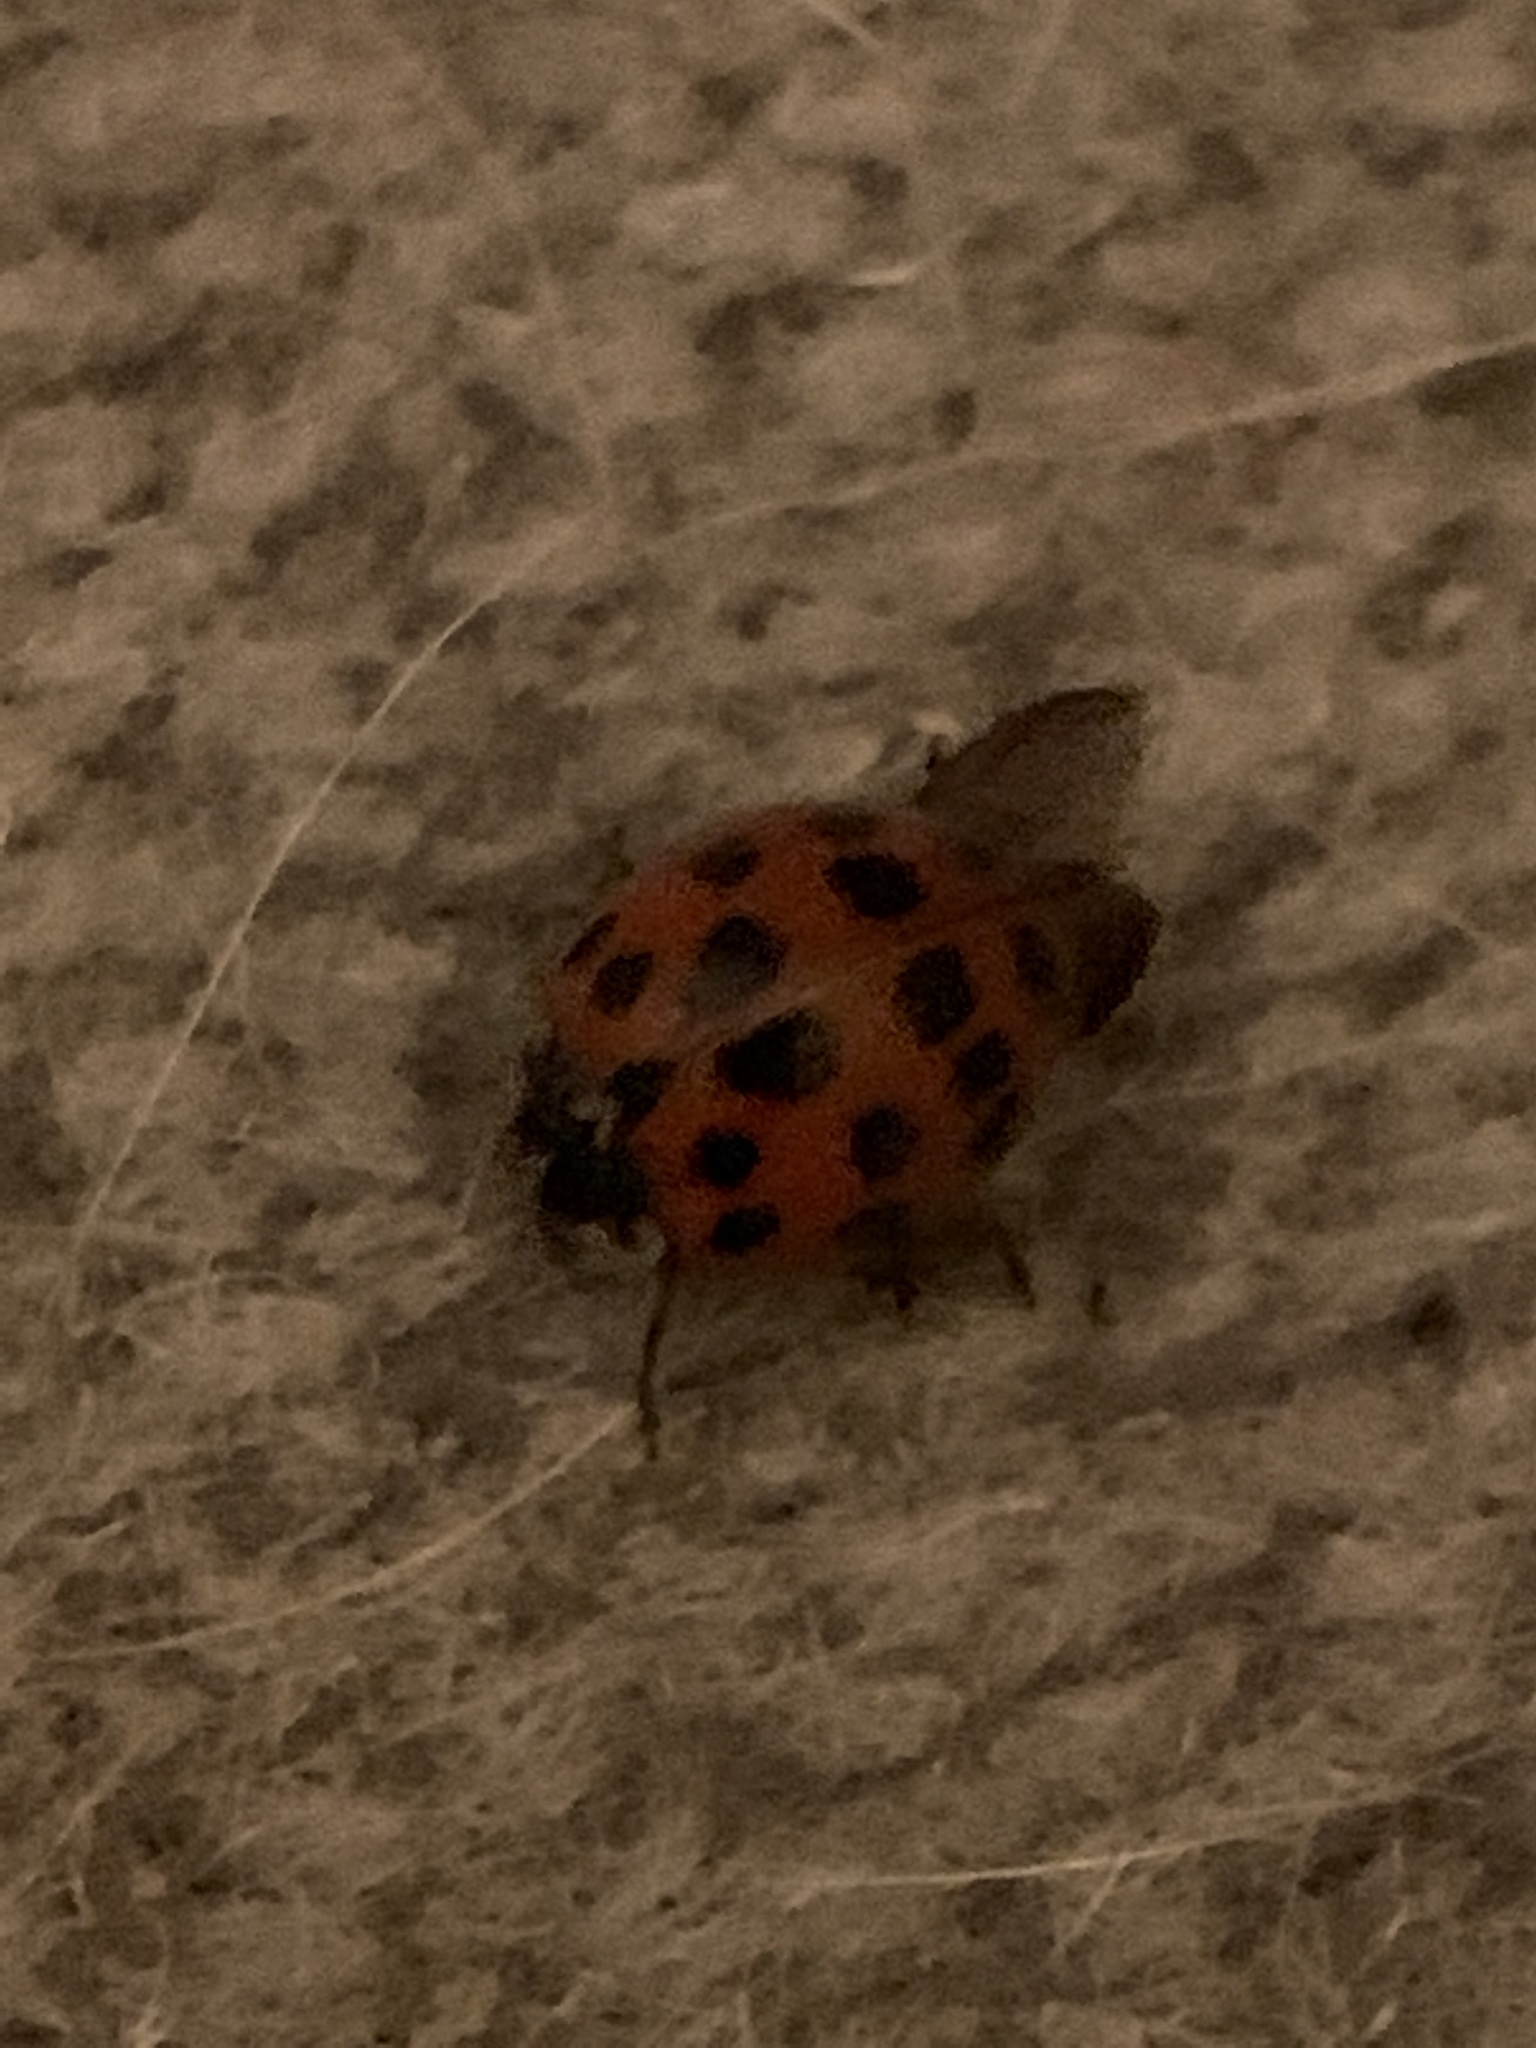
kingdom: Animalia
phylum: Arthropoda
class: Insecta
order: Coleoptera
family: Coccinellidae
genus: Harmonia
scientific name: Harmonia axyridis
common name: Harlequin ladybird
